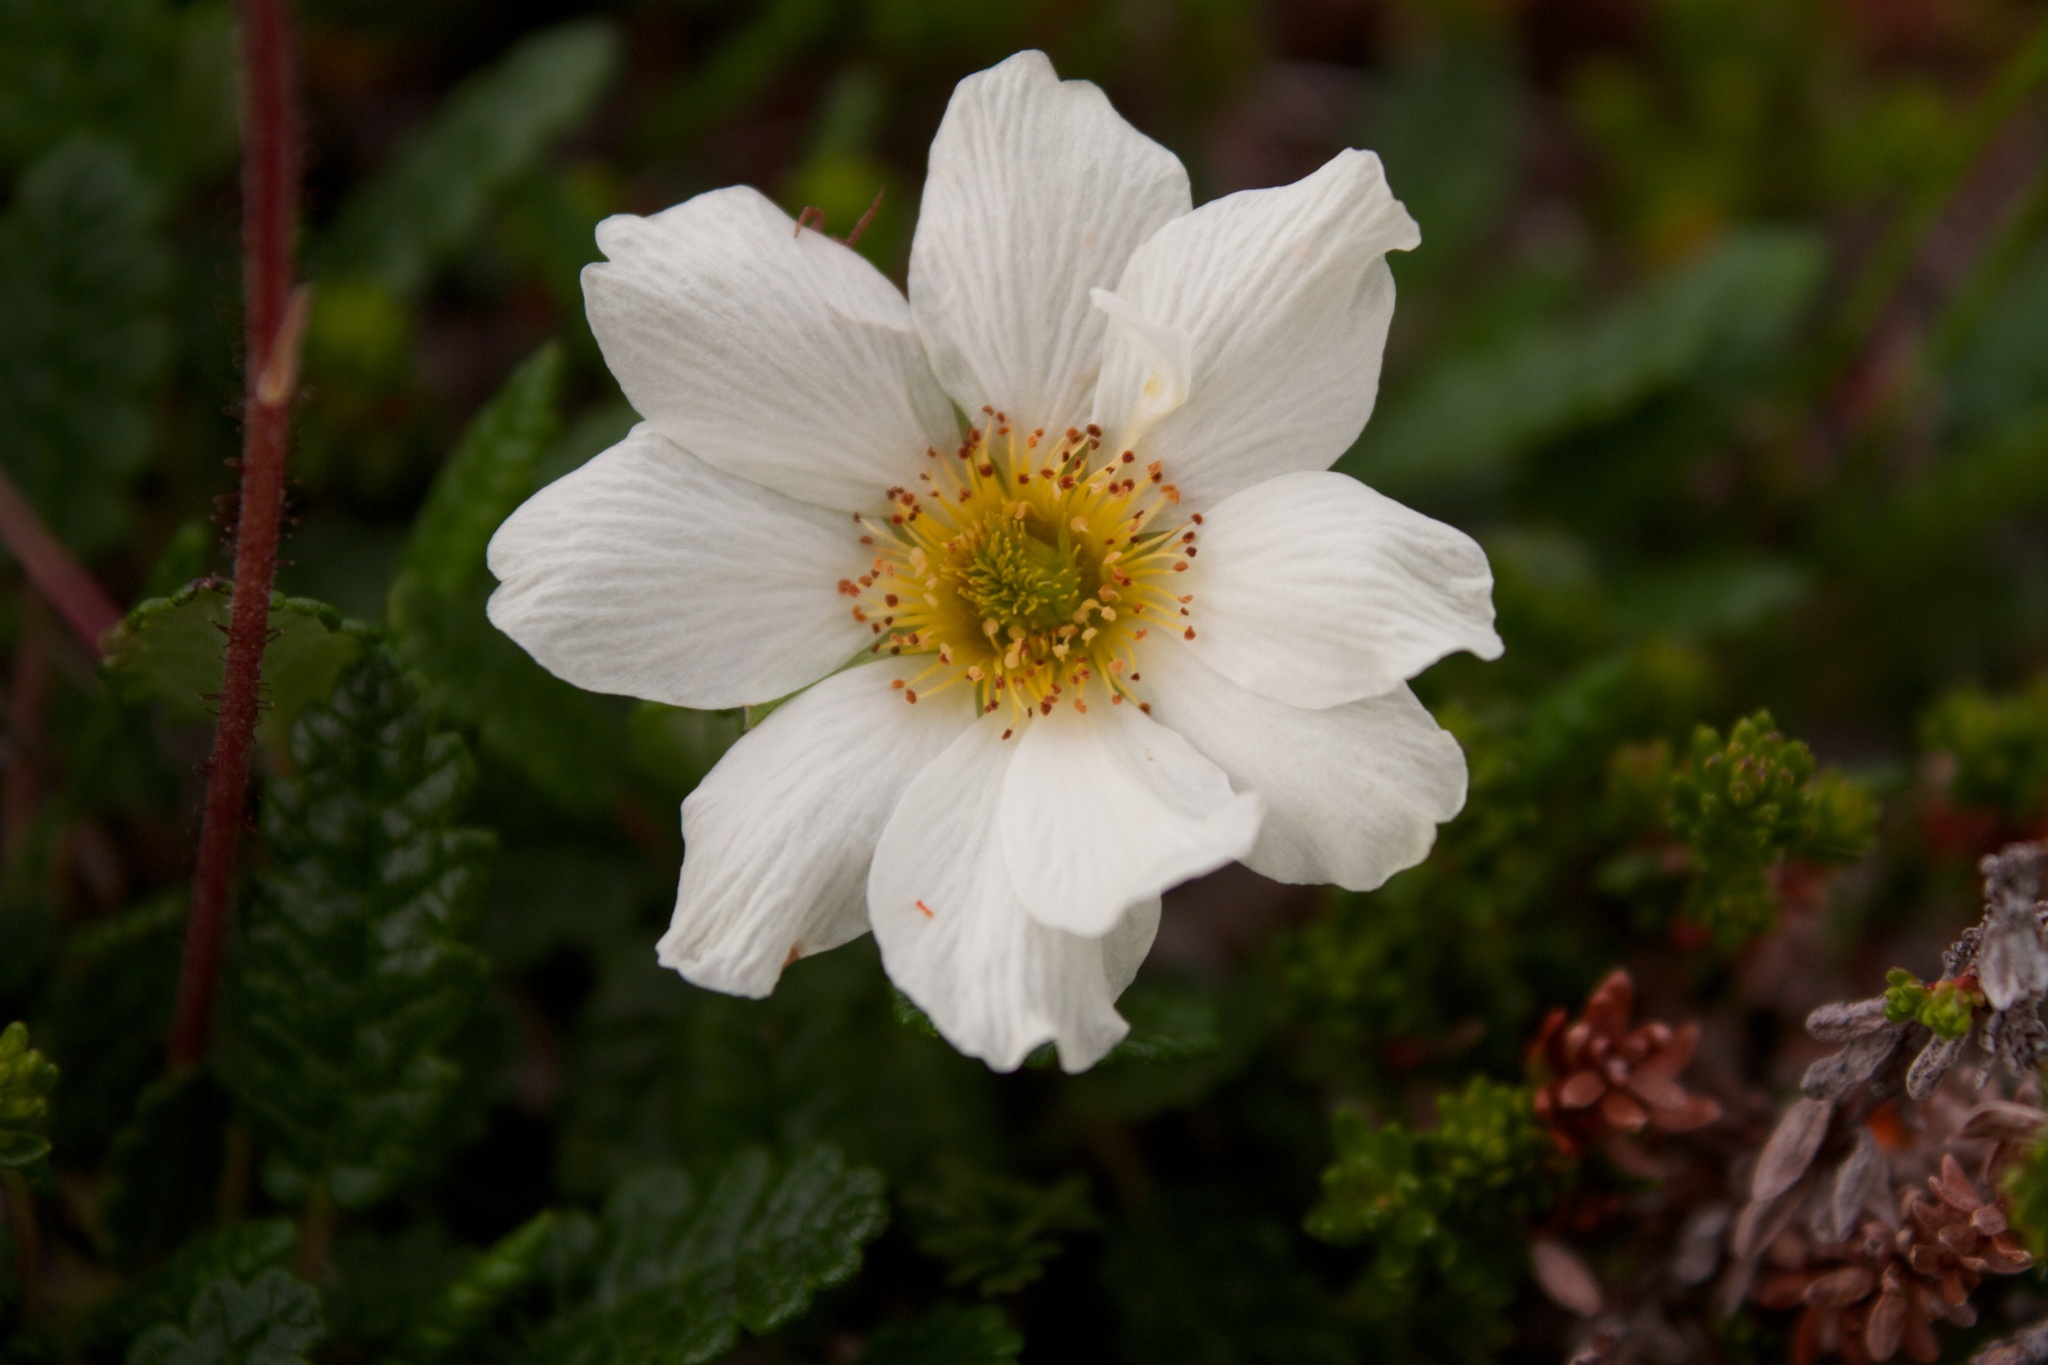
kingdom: Plantae
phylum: Tracheophyta
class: Magnoliopsida
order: Rosales
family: Rosaceae
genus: Dryas
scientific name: Dryas octopetala
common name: Eight-petal mountain-avens
